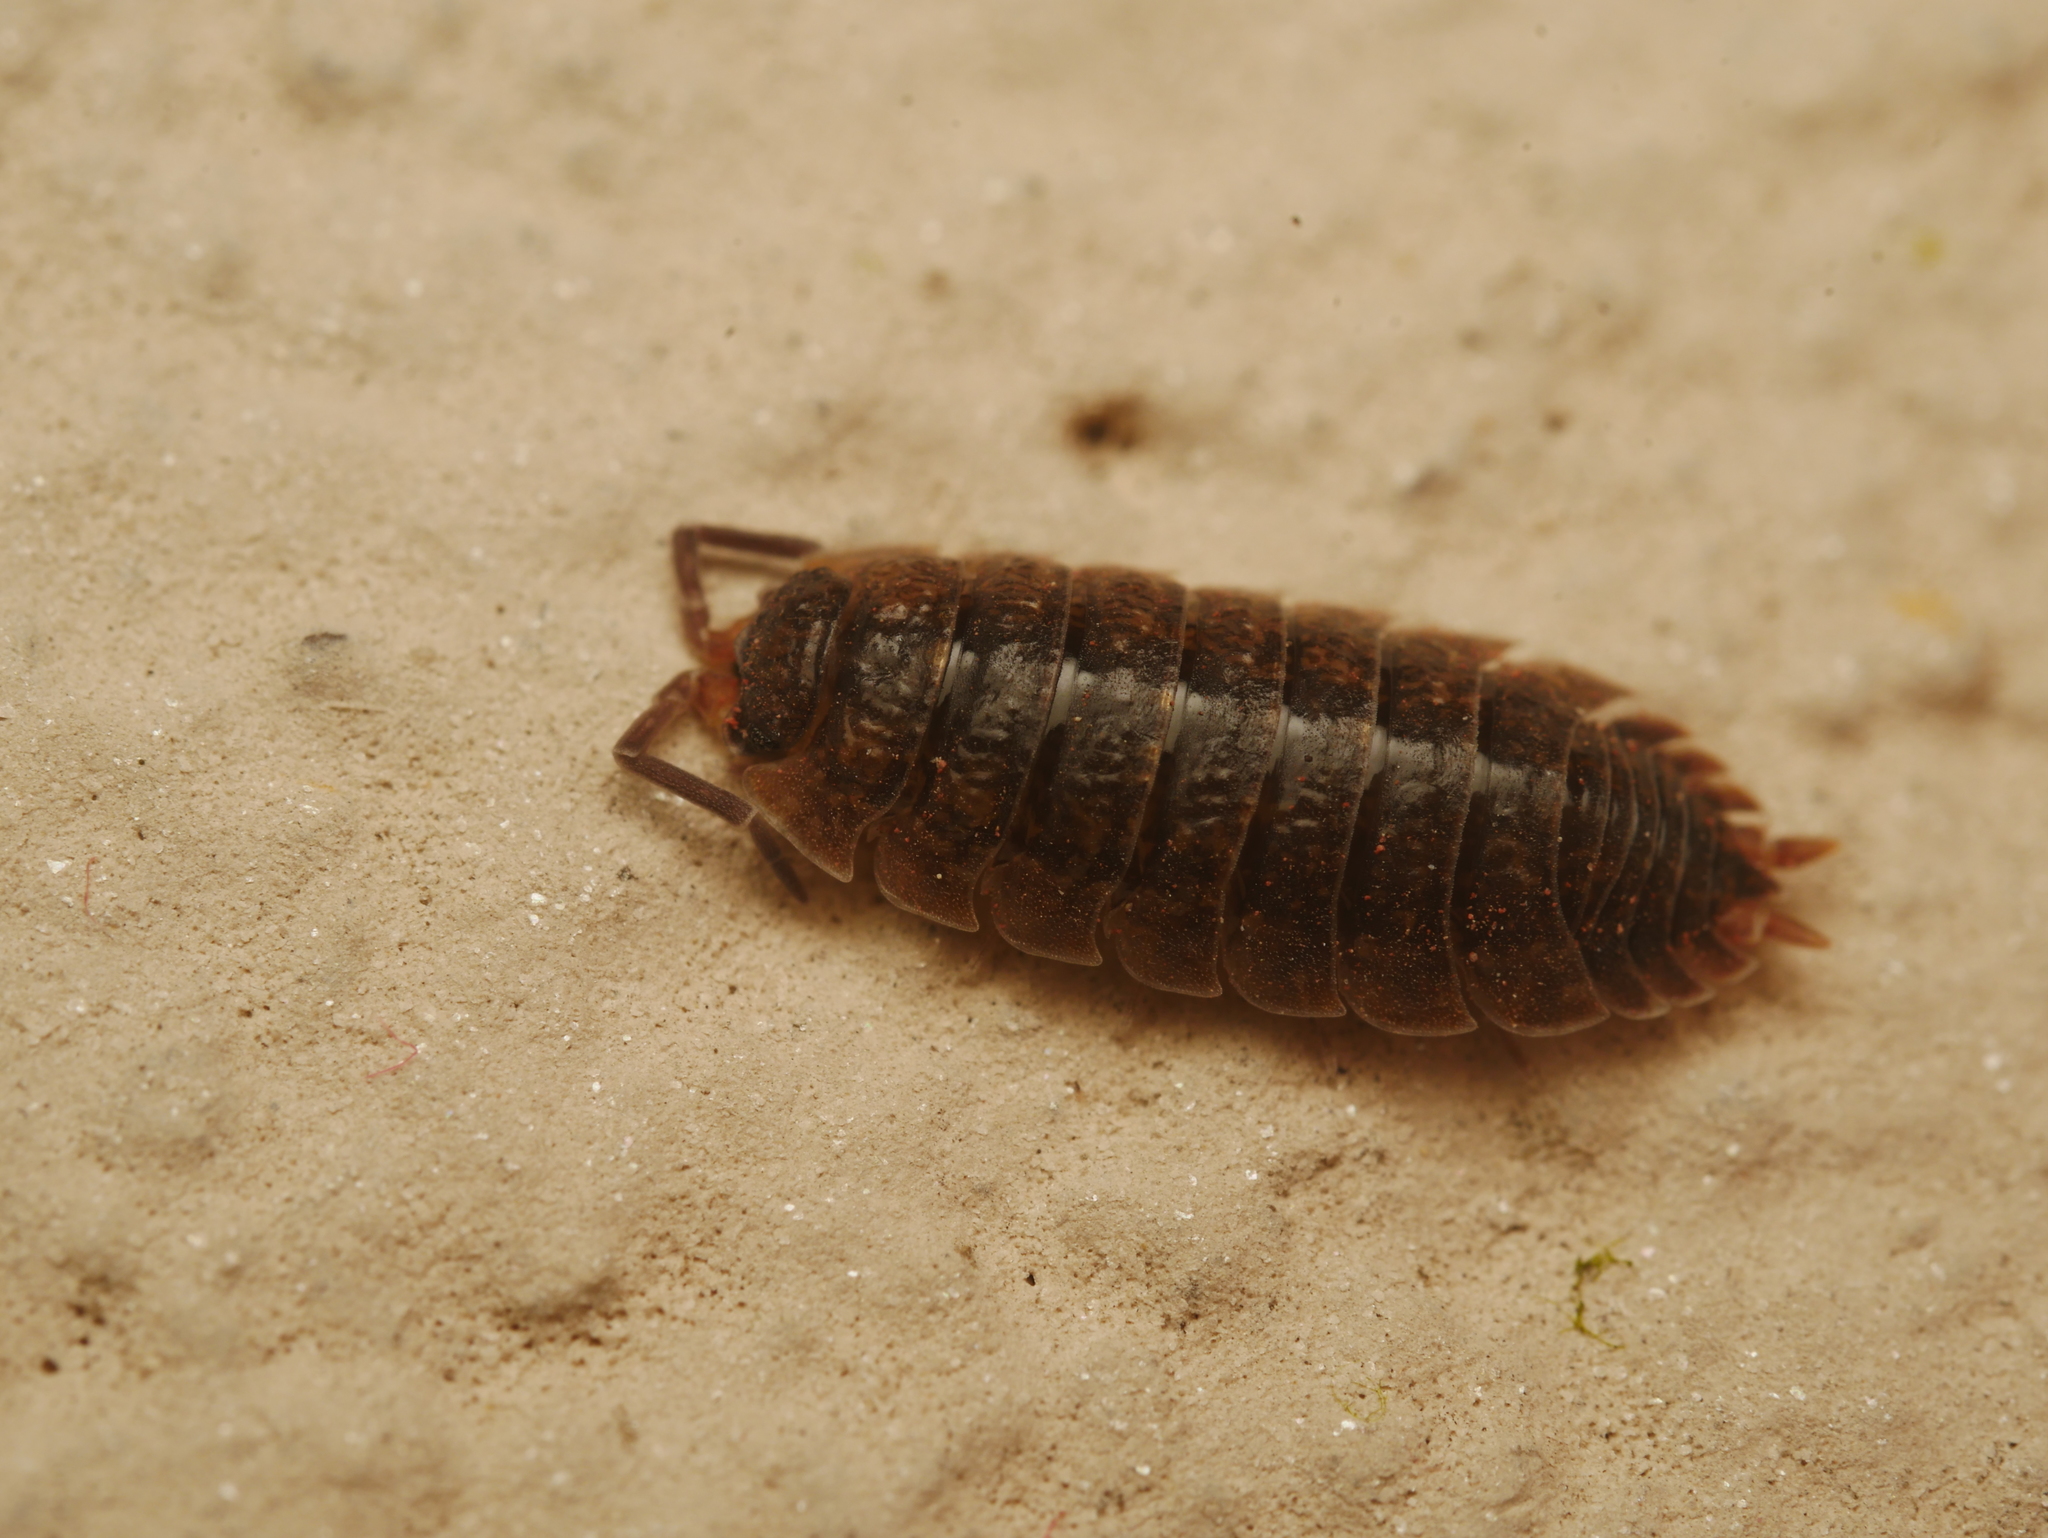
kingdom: Animalia
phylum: Arthropoda
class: Malacostraca
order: Isopoda
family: Porcellionidae
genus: Porcellio
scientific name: Porcellio scaber
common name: Common rough woodlouse
